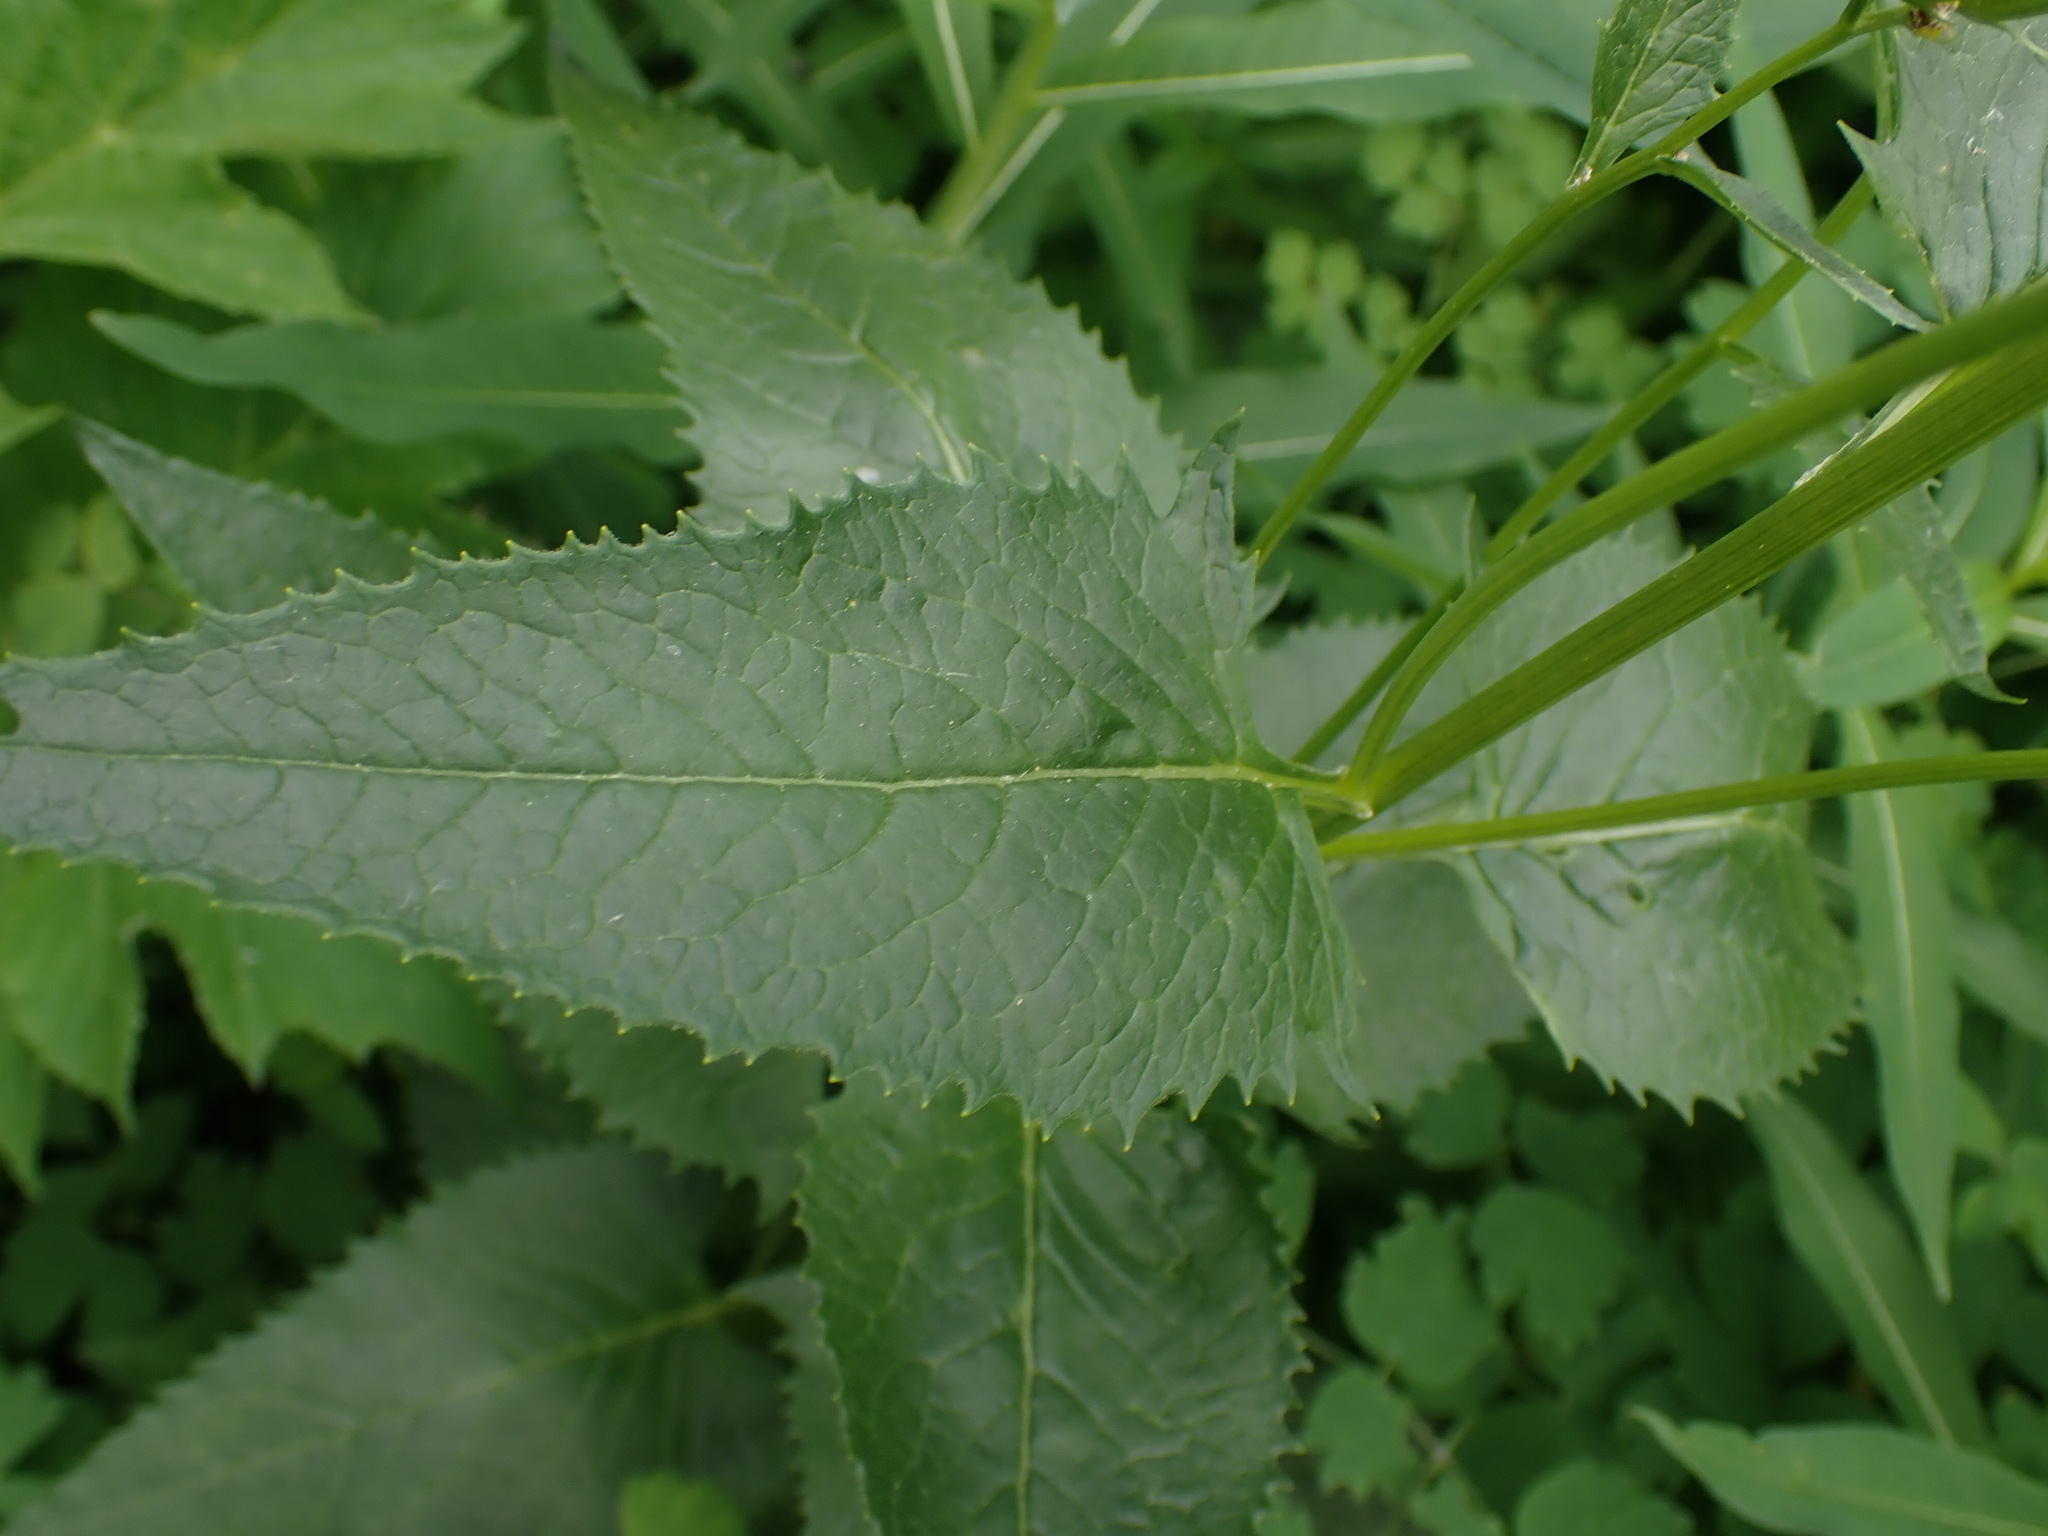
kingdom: Plantae
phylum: Tracheophyta
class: Magnoliopsida
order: Asterales
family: Asteraceae
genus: Senecio
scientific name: Senecio triangularis
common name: Arrowleaf butterweed
